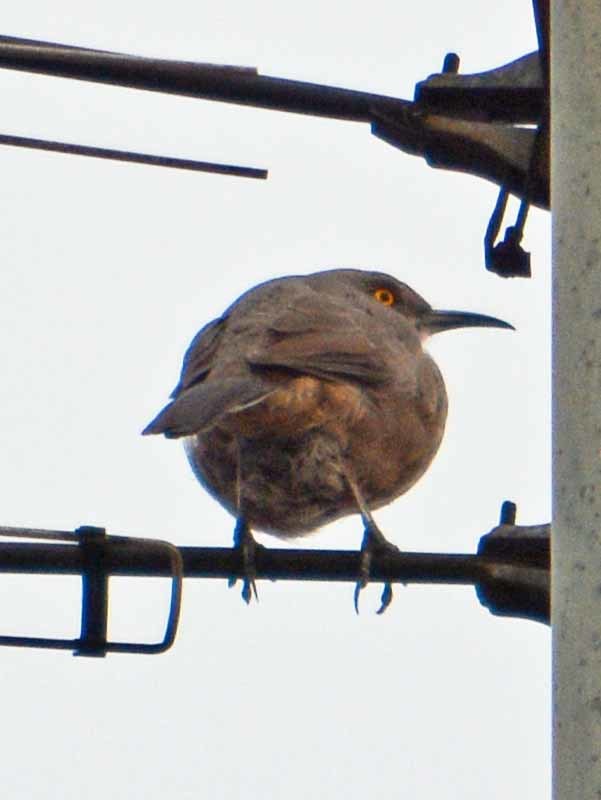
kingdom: Animalia
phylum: Chordata
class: Aves
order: Passeriformes
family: Mimidae
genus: Toxostoma
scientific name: Toxostoma curvirostre
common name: Curve-billed thrasher
